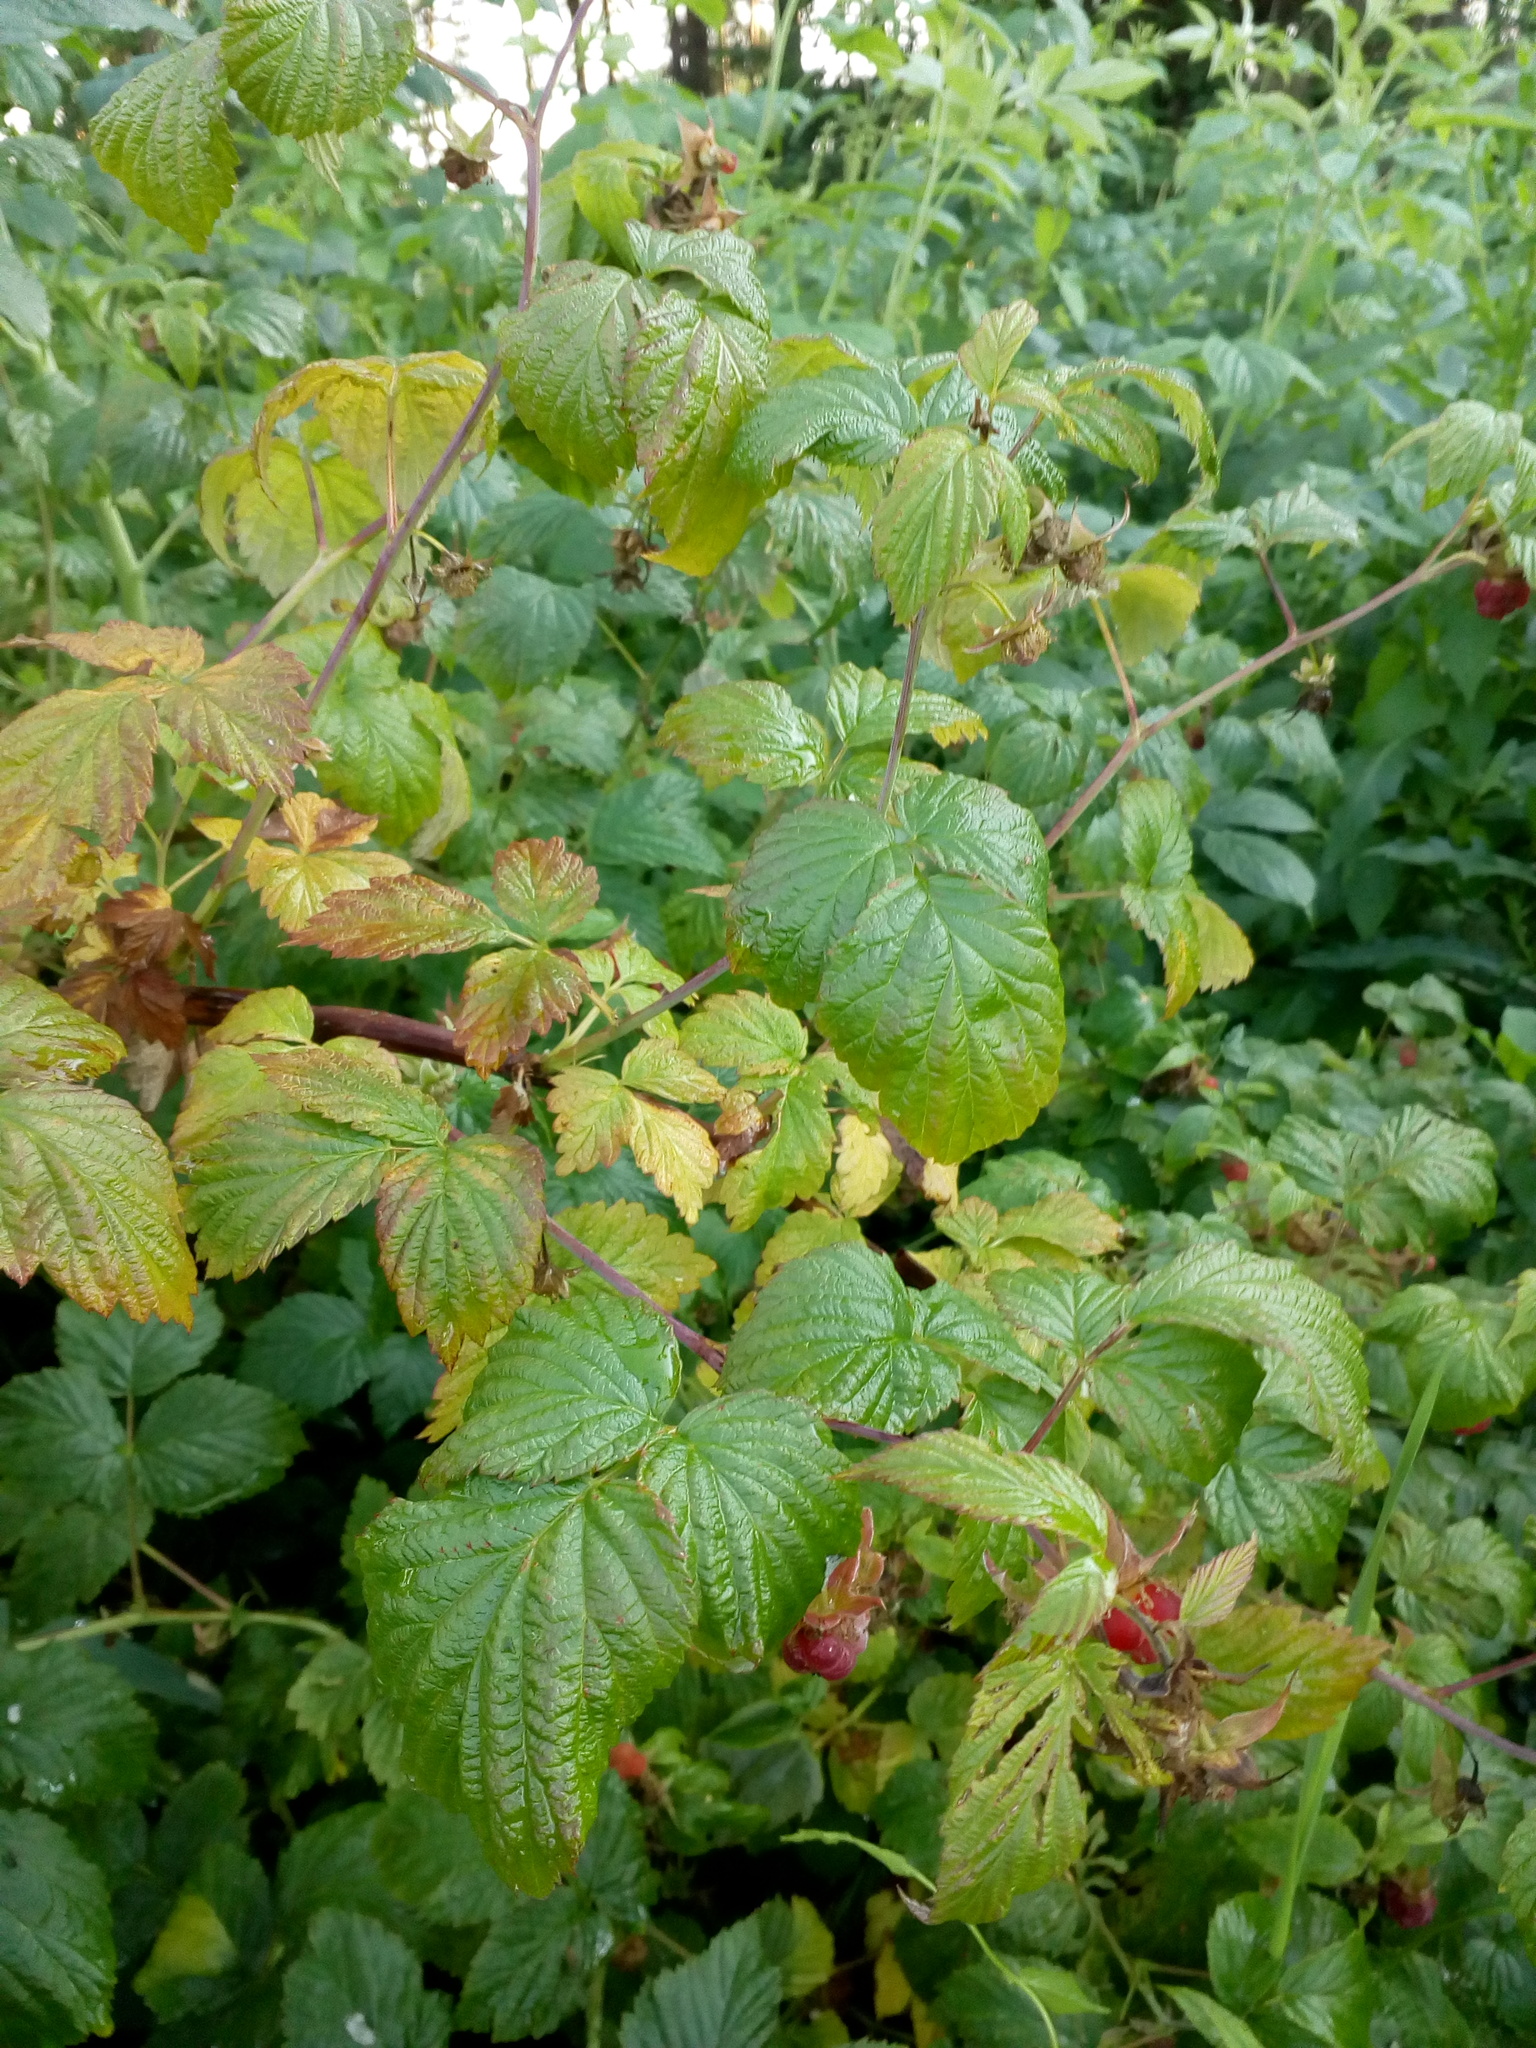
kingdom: Plantae
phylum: Tracheophyta
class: Magnoliopsida
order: Rosales
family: Rosaceae
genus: Rubus
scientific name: Rubus idaeus
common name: Raspberry
